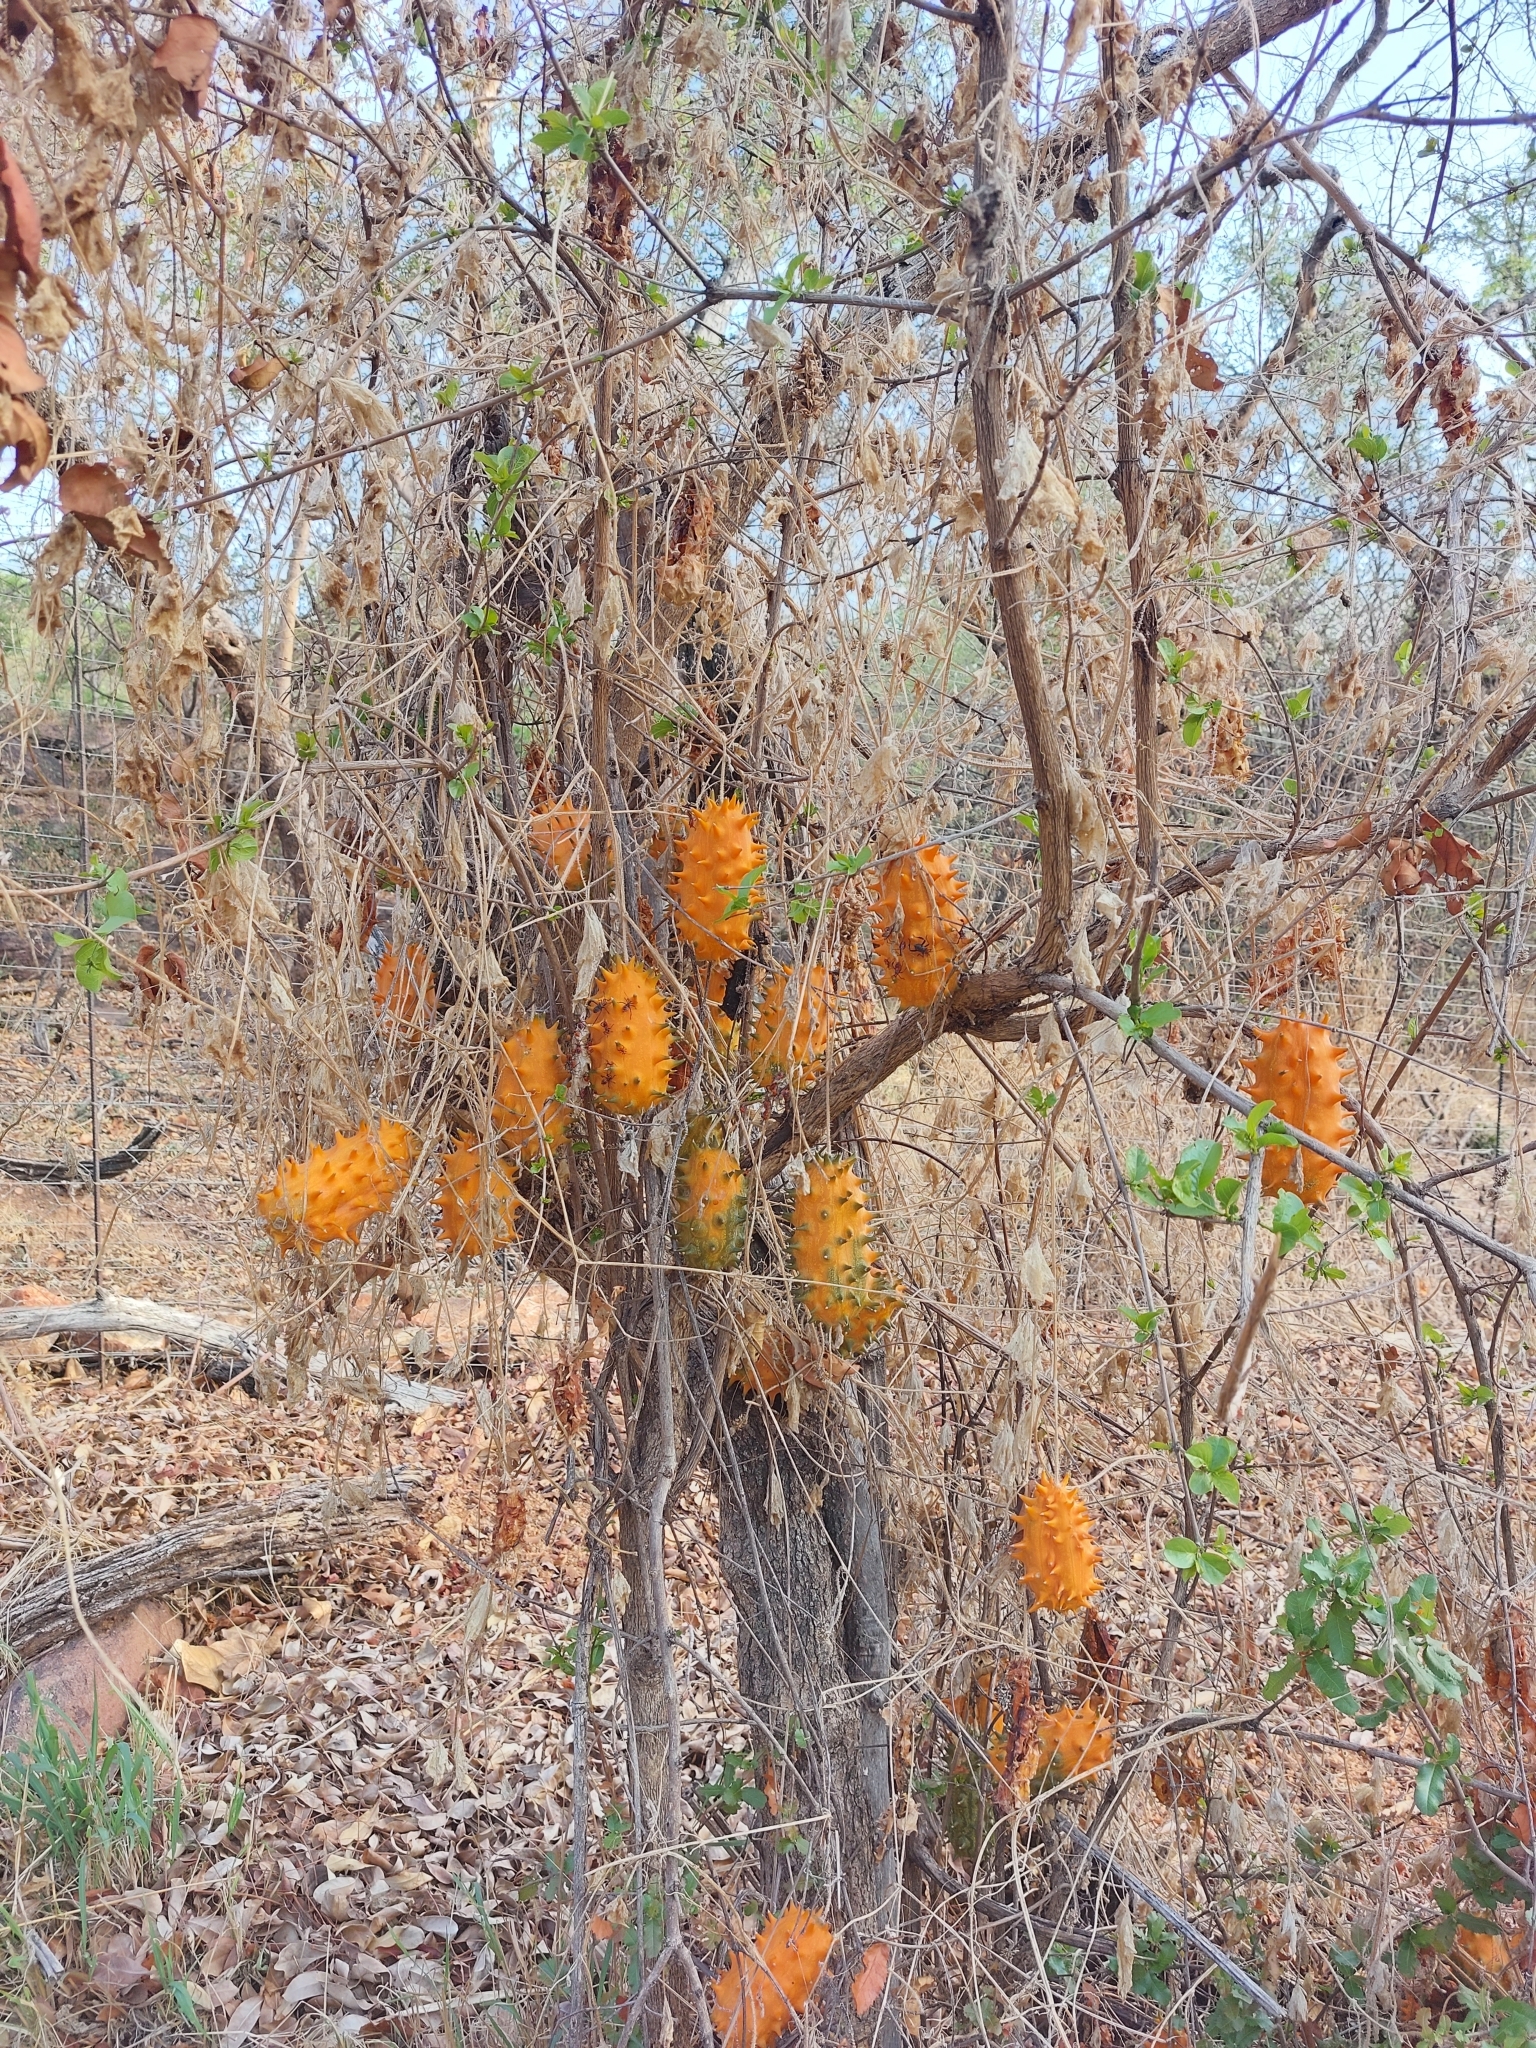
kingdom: Plantae
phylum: Tracheophyta
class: Magnoliopsida
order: Cucurbitales
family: Cucurbitaceae
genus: Cucumis
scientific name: Cucumis metuliferus
